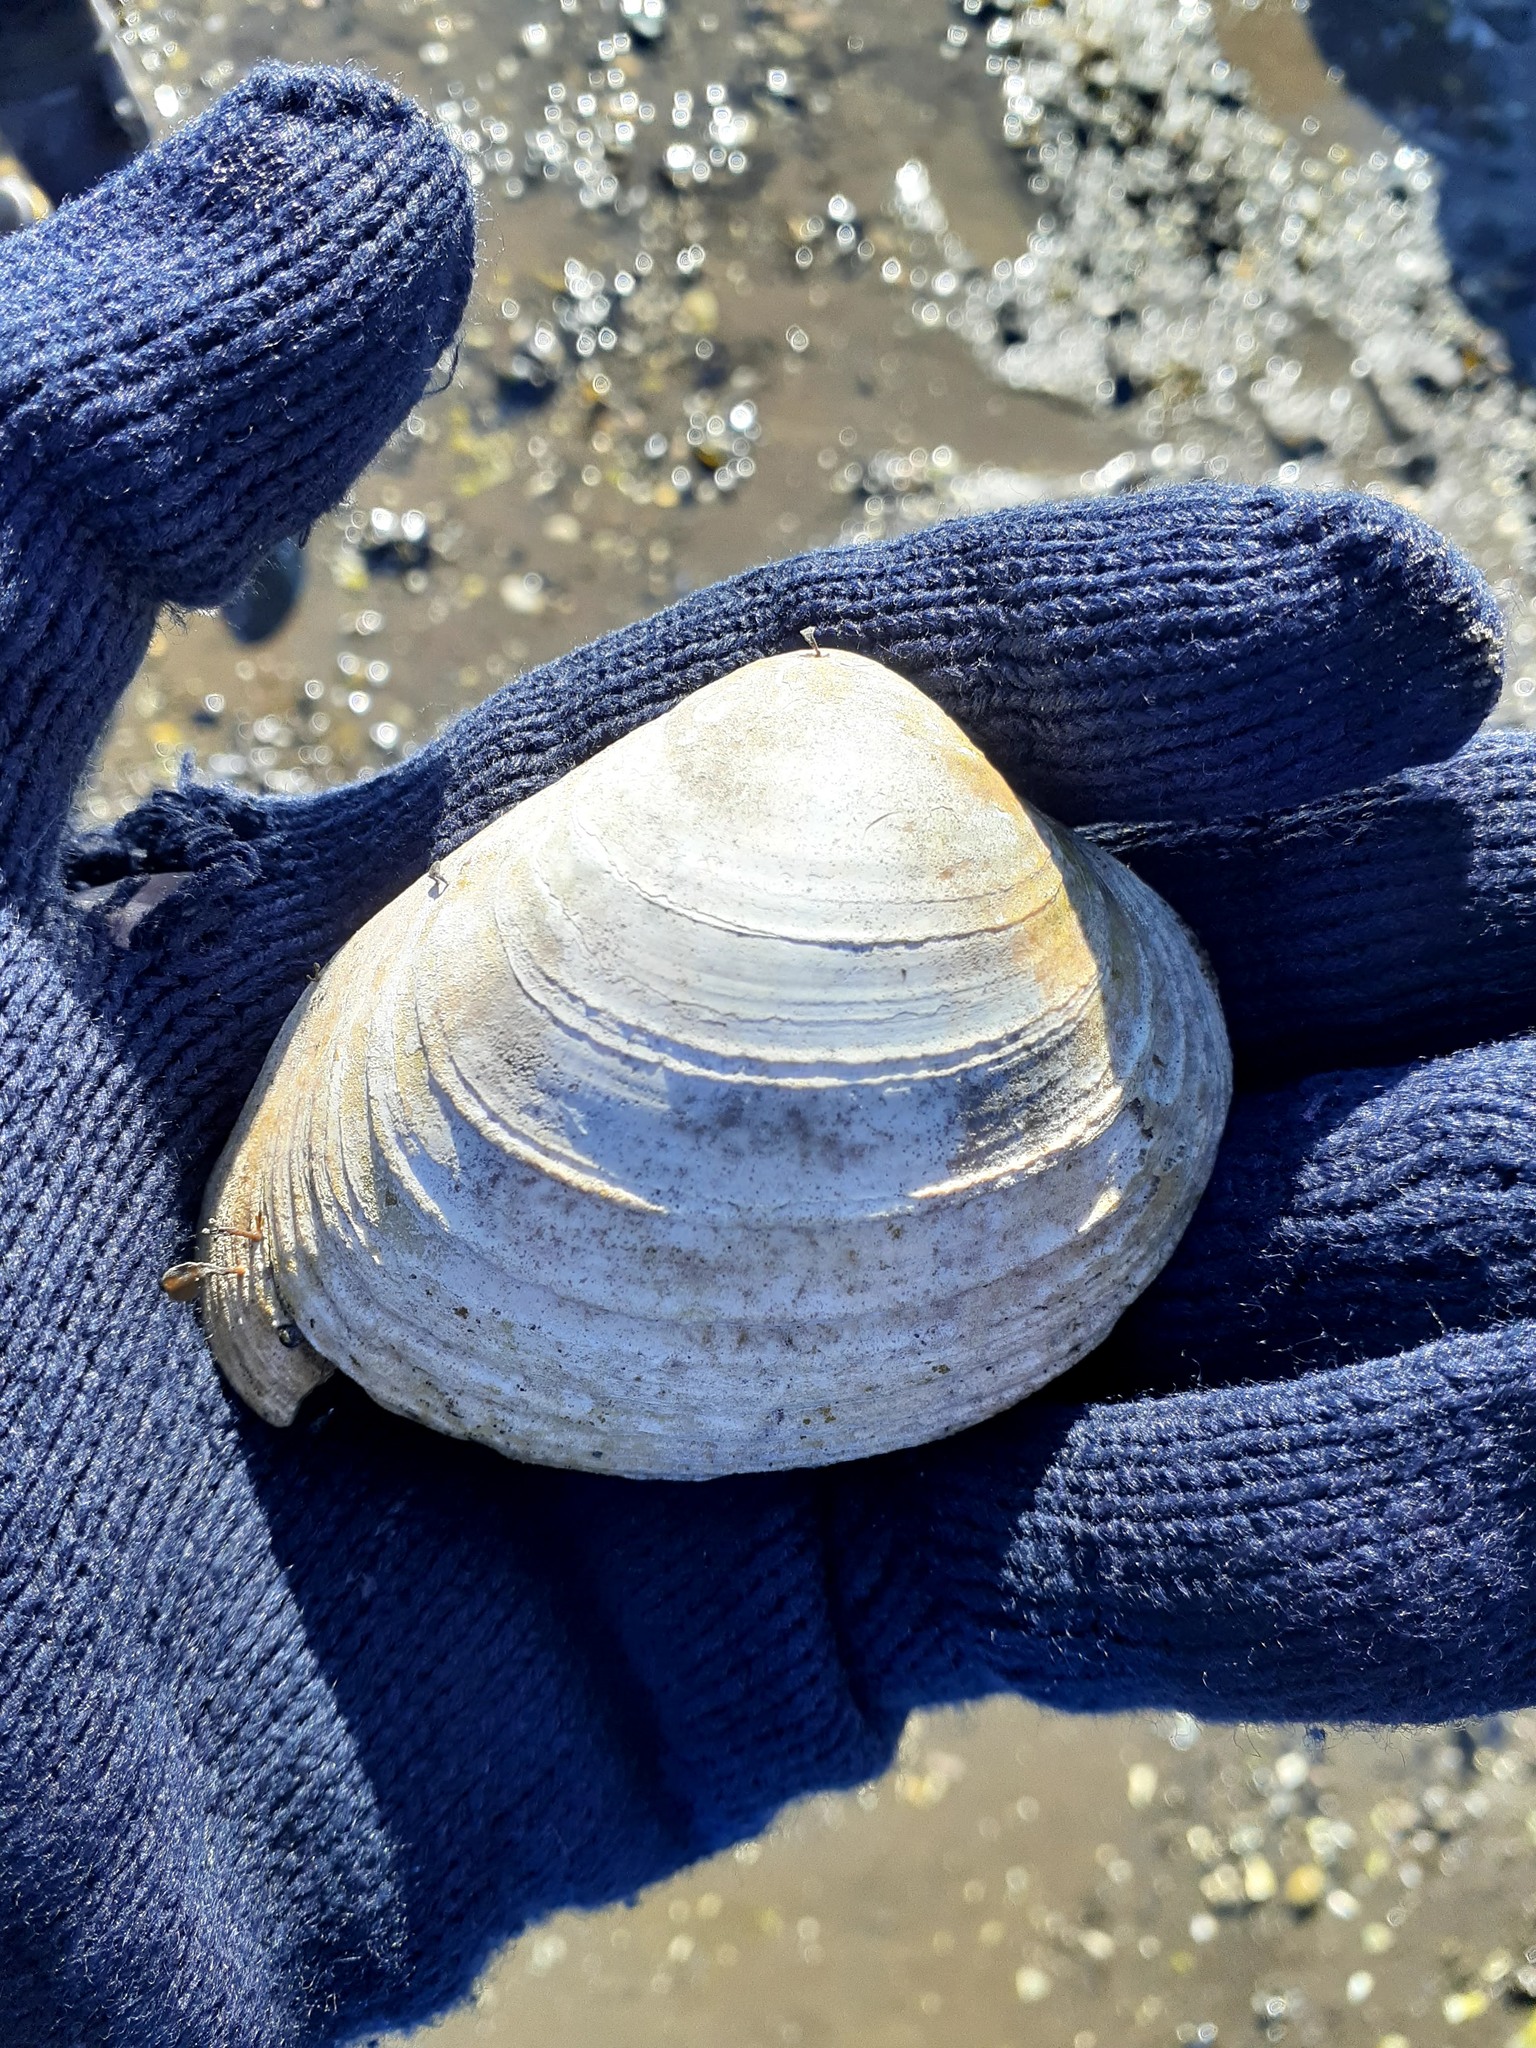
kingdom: Animalia
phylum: Mollusca
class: Bivalvia
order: Cardiida
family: Cardiidae
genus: Serripes
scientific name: Serripes groenlandicus
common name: Greenland cockle
